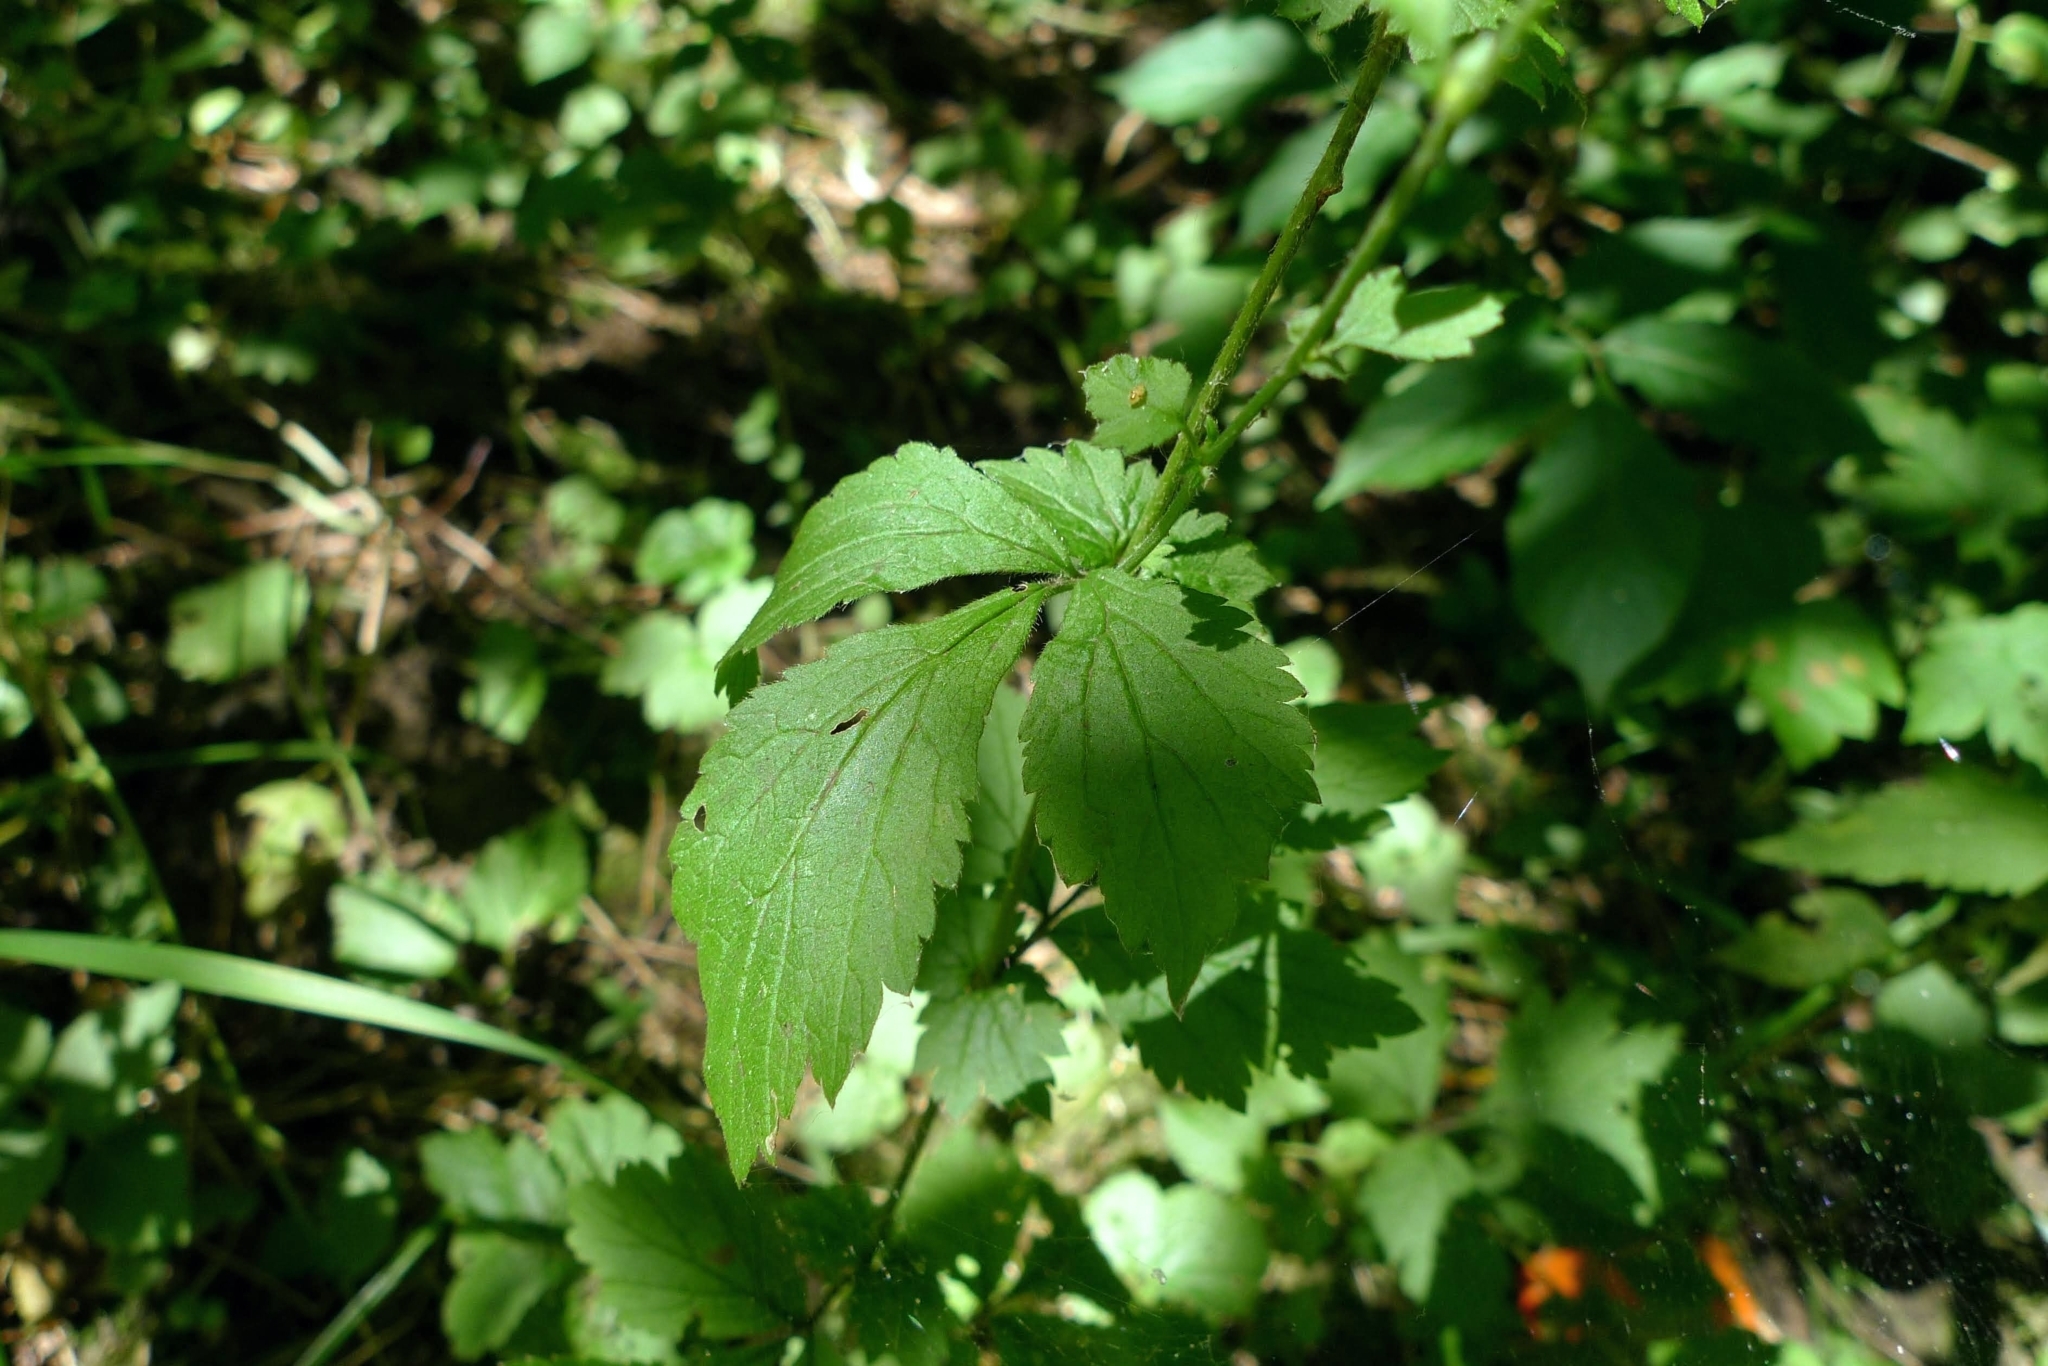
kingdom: Plantae
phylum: Tracheophyta
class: Magnoliopsida
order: Rosales
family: Rosaceae
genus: Geum
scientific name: Geum urbanum
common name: Wood avens
